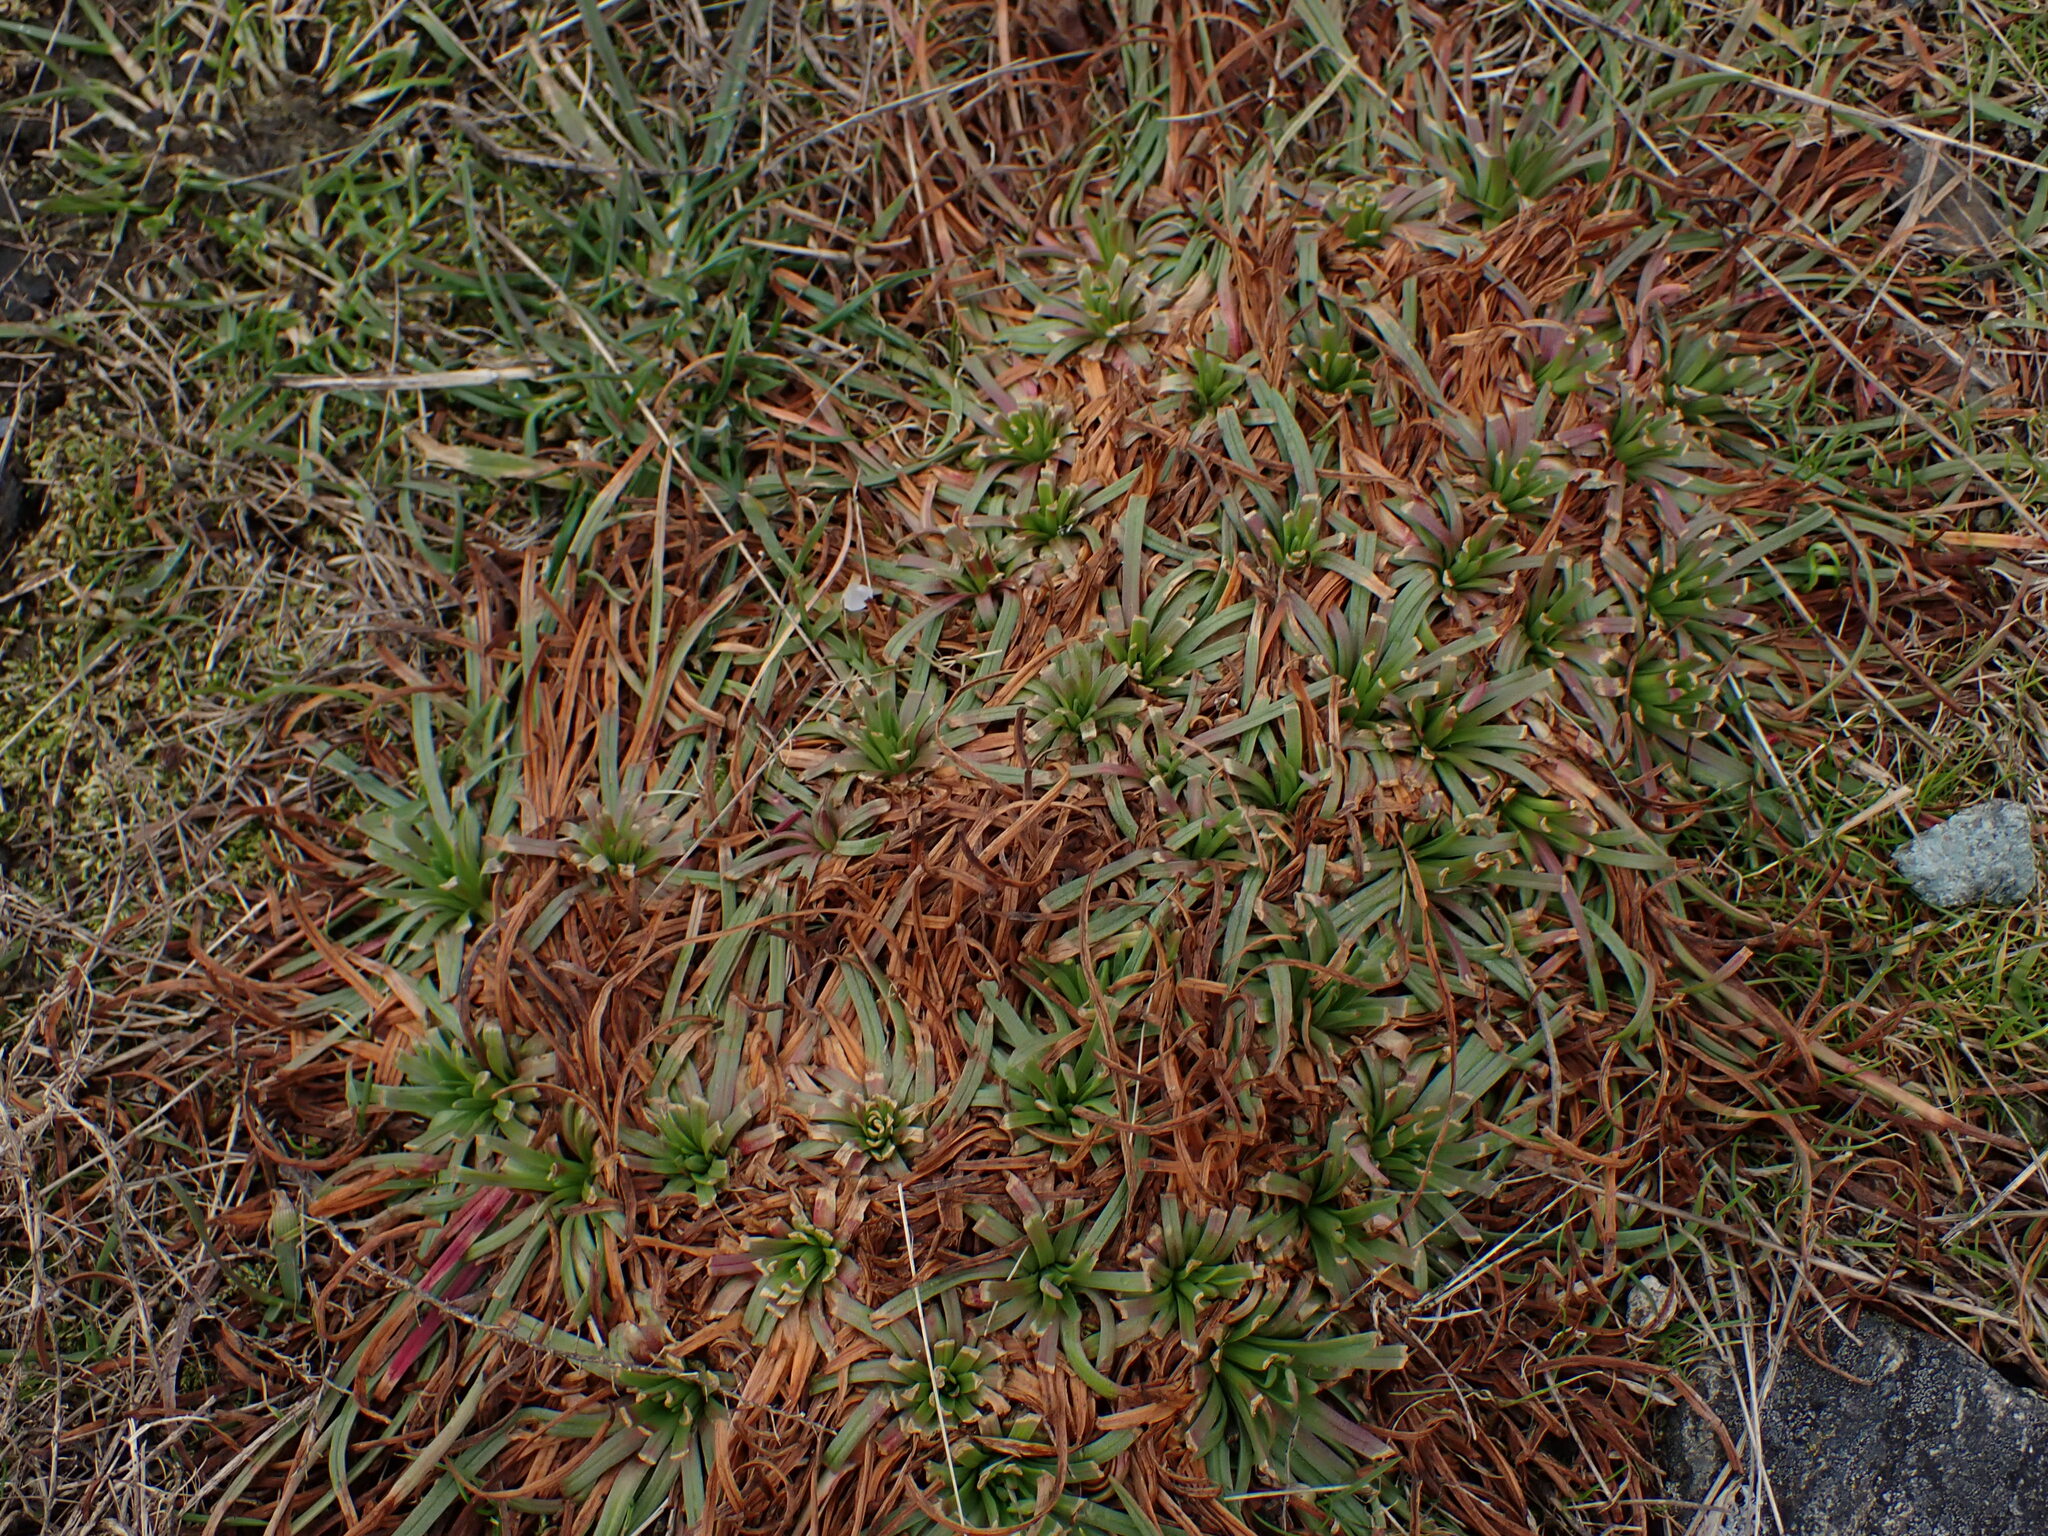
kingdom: Plantae
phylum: Tracheophyta
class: Magnoliopsida
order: Caryophyllales
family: Plumbaginaceae
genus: Armeria
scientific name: Armeria maritima
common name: Thrift
